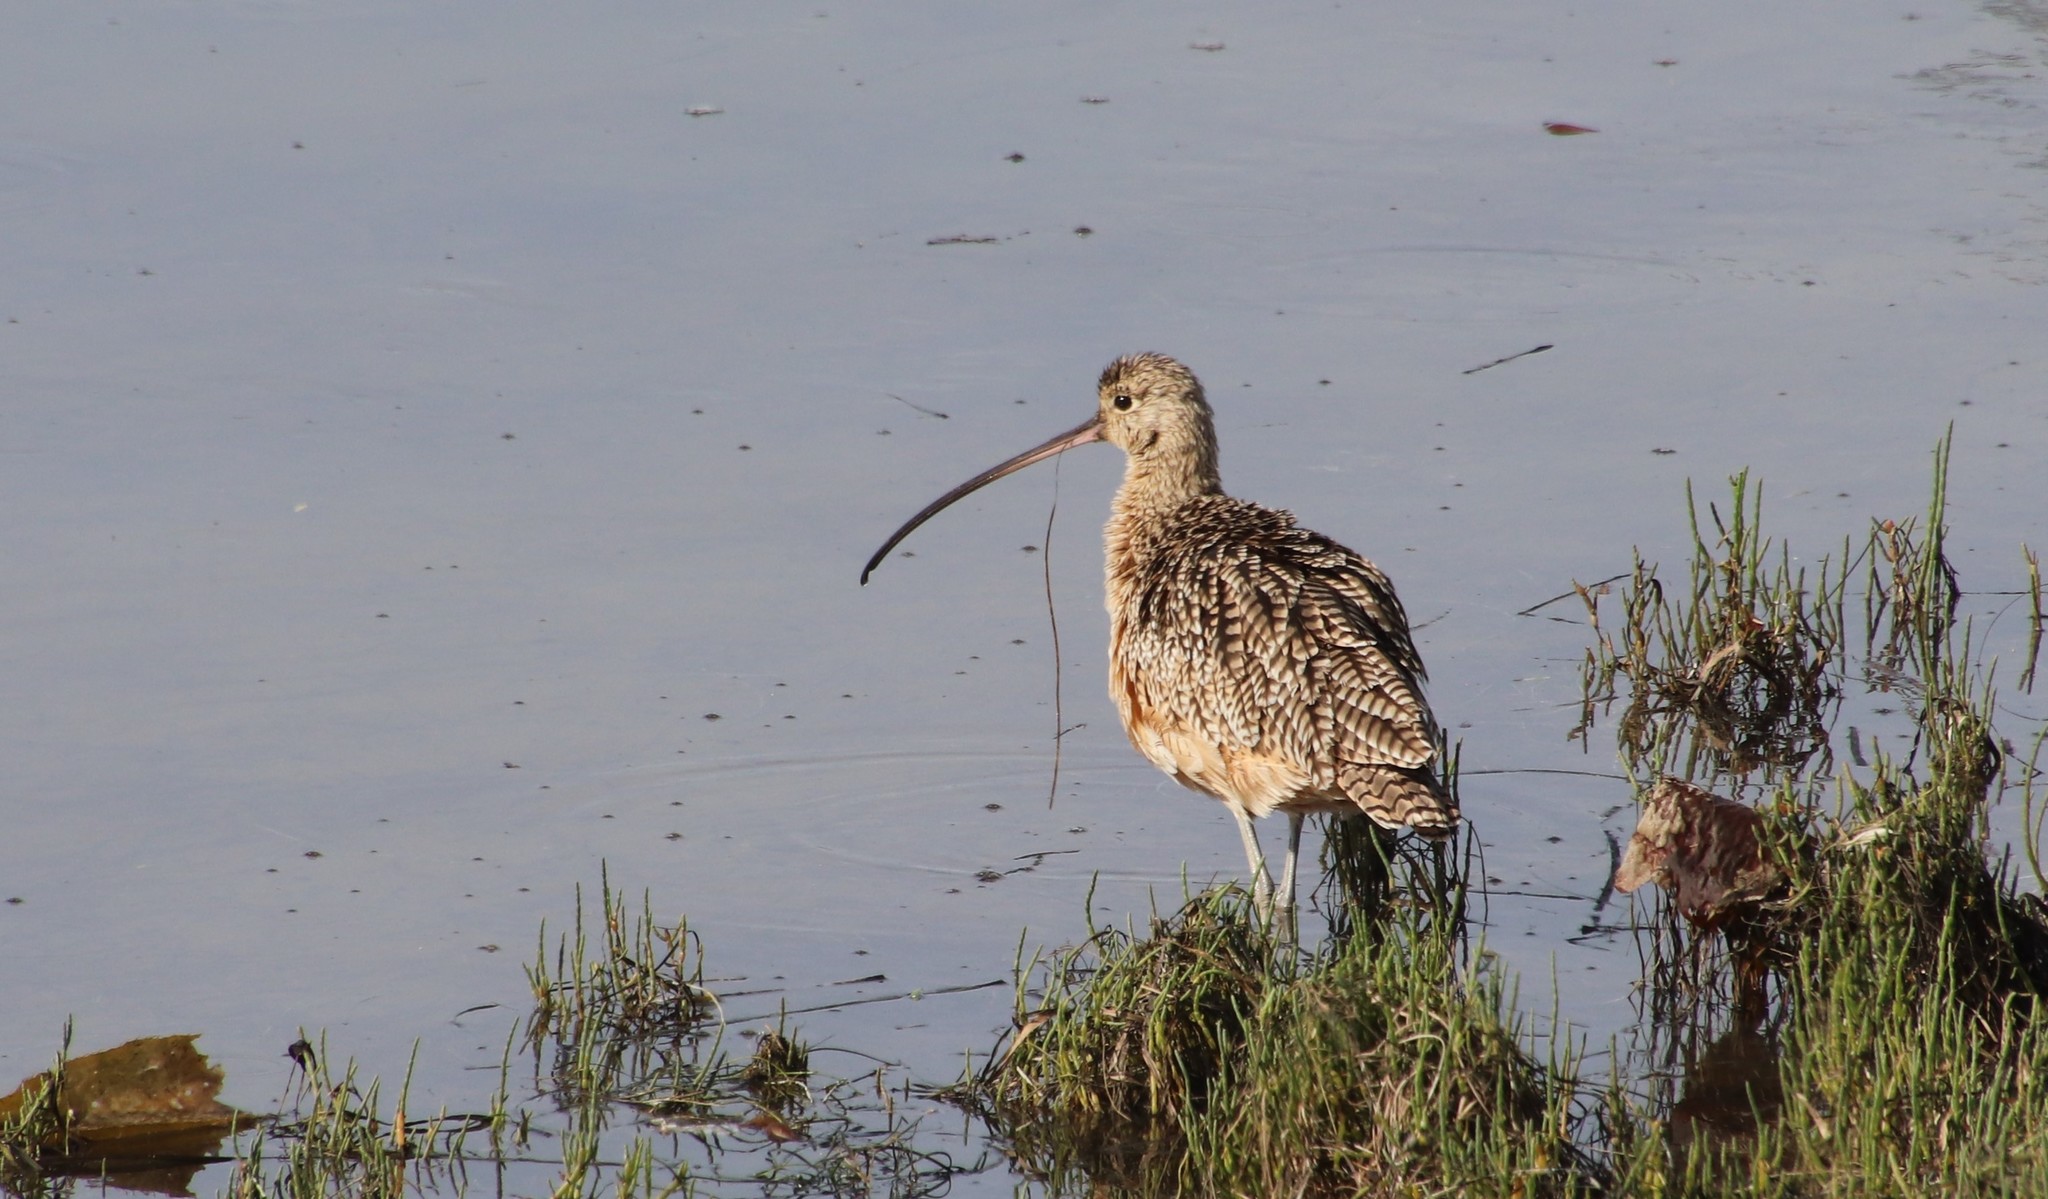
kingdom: Animalia
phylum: Chordata
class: Aves
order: Charadriiformes
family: Scolopacidae
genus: Numenius
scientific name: Numenius americanus
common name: Long-billed curlew
